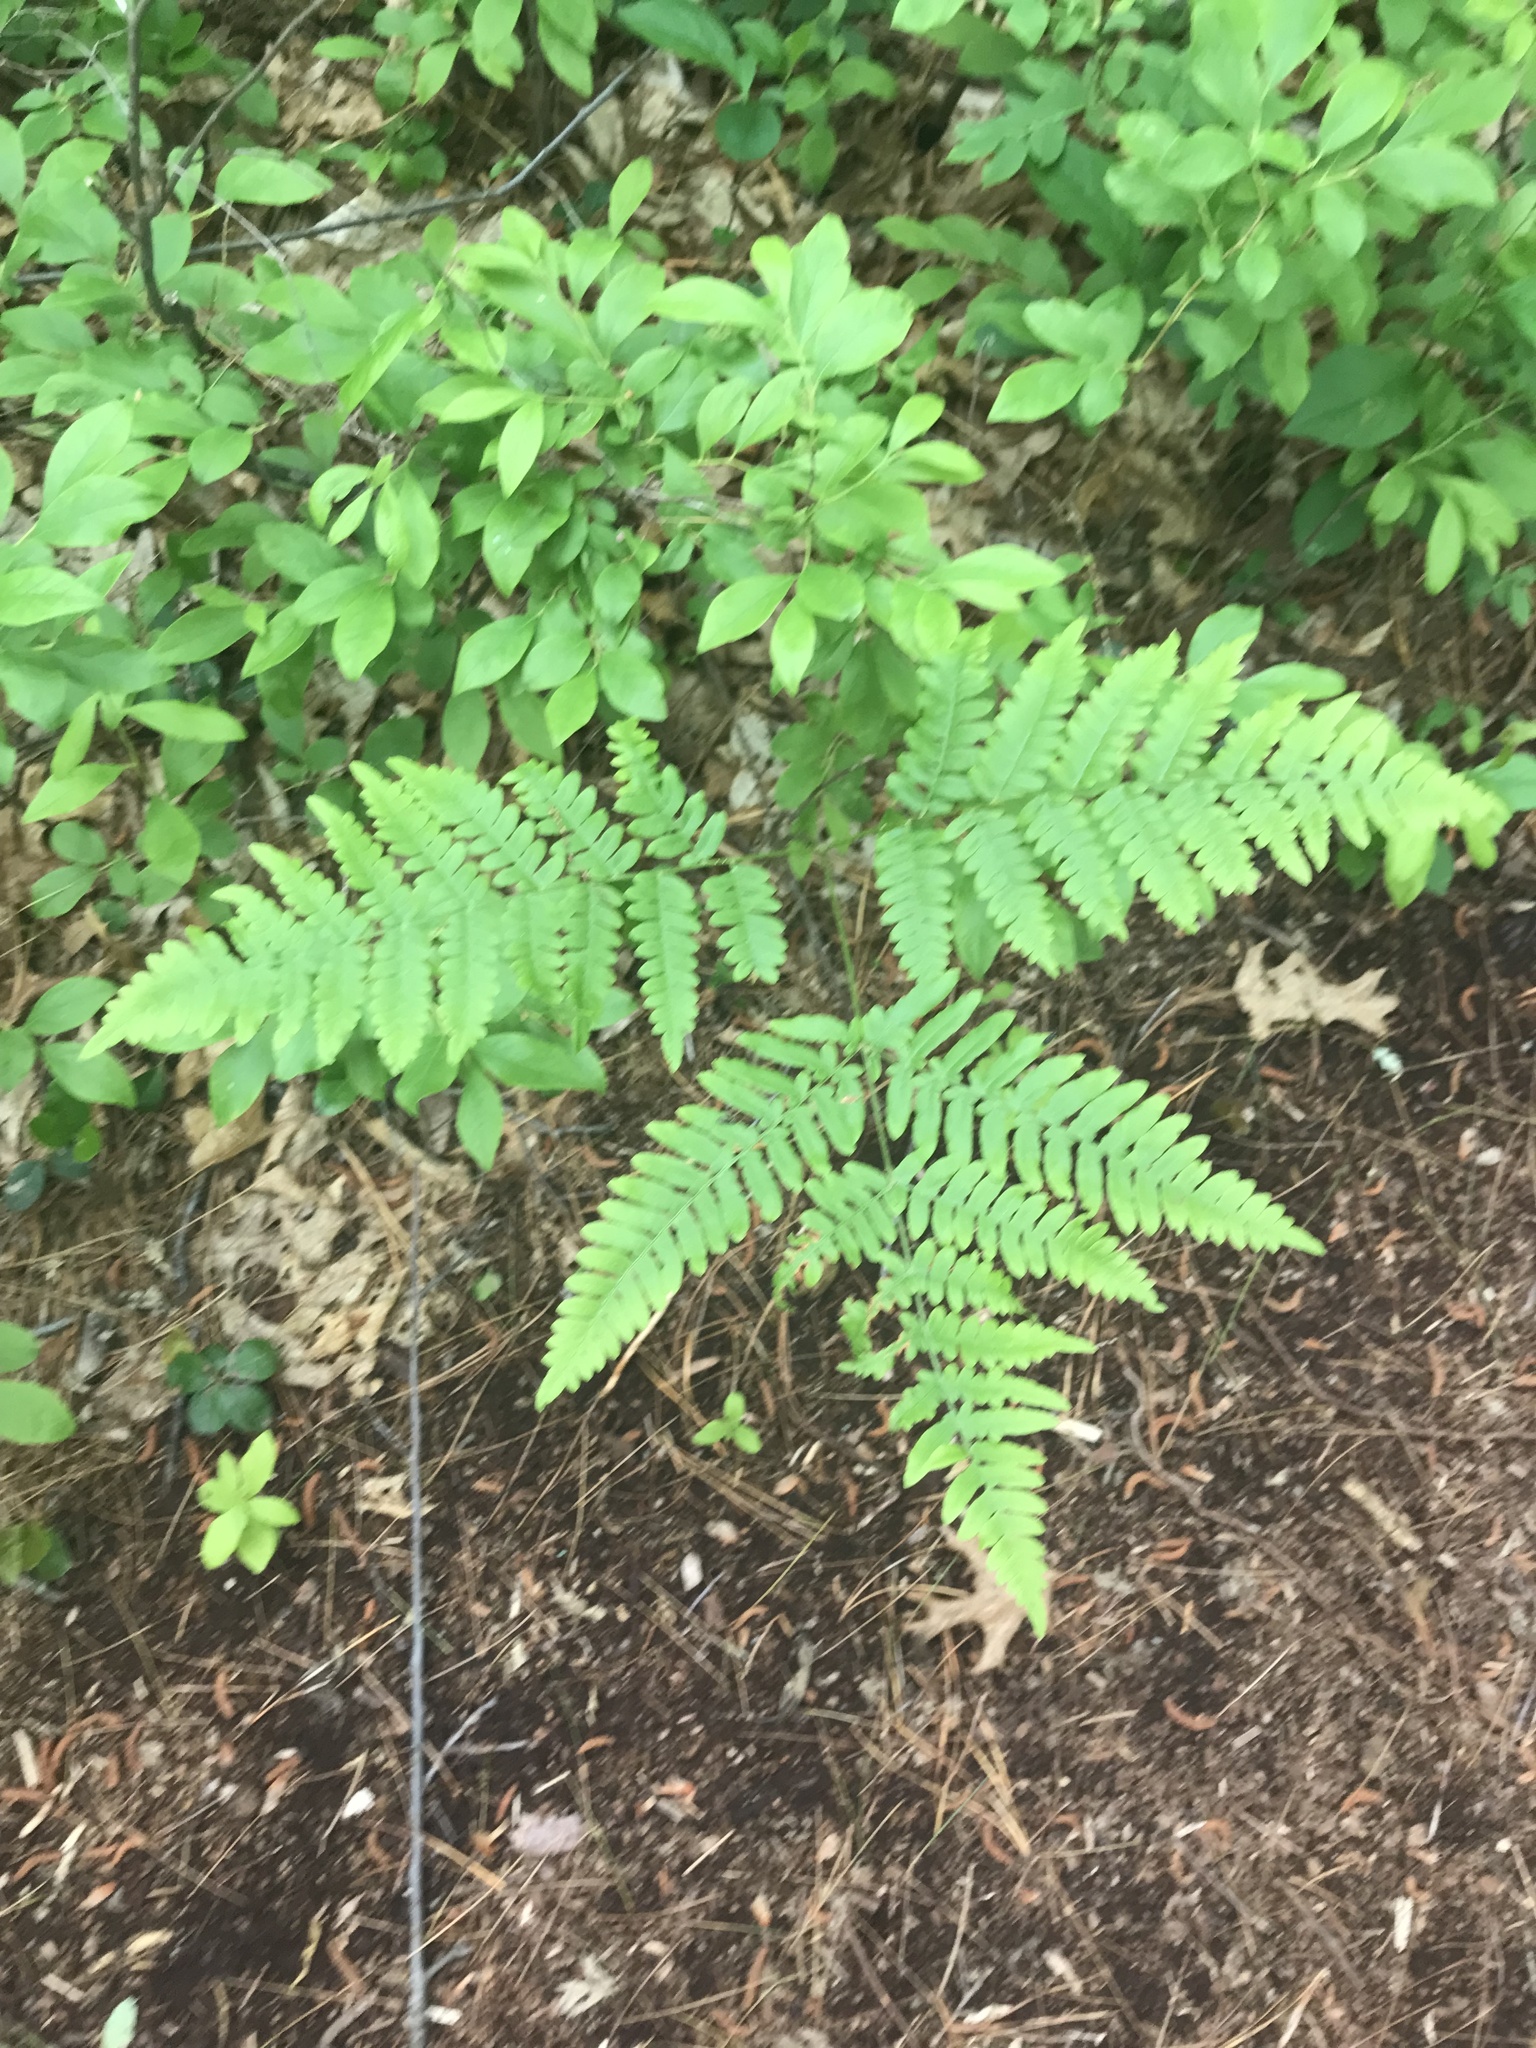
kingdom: Plantae
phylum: Tracheophyta
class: Polypodiopsida
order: Polypodiales
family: Dennstaedtiaceae
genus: Pteridium
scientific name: Pteridium aquilinum
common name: Bracken
